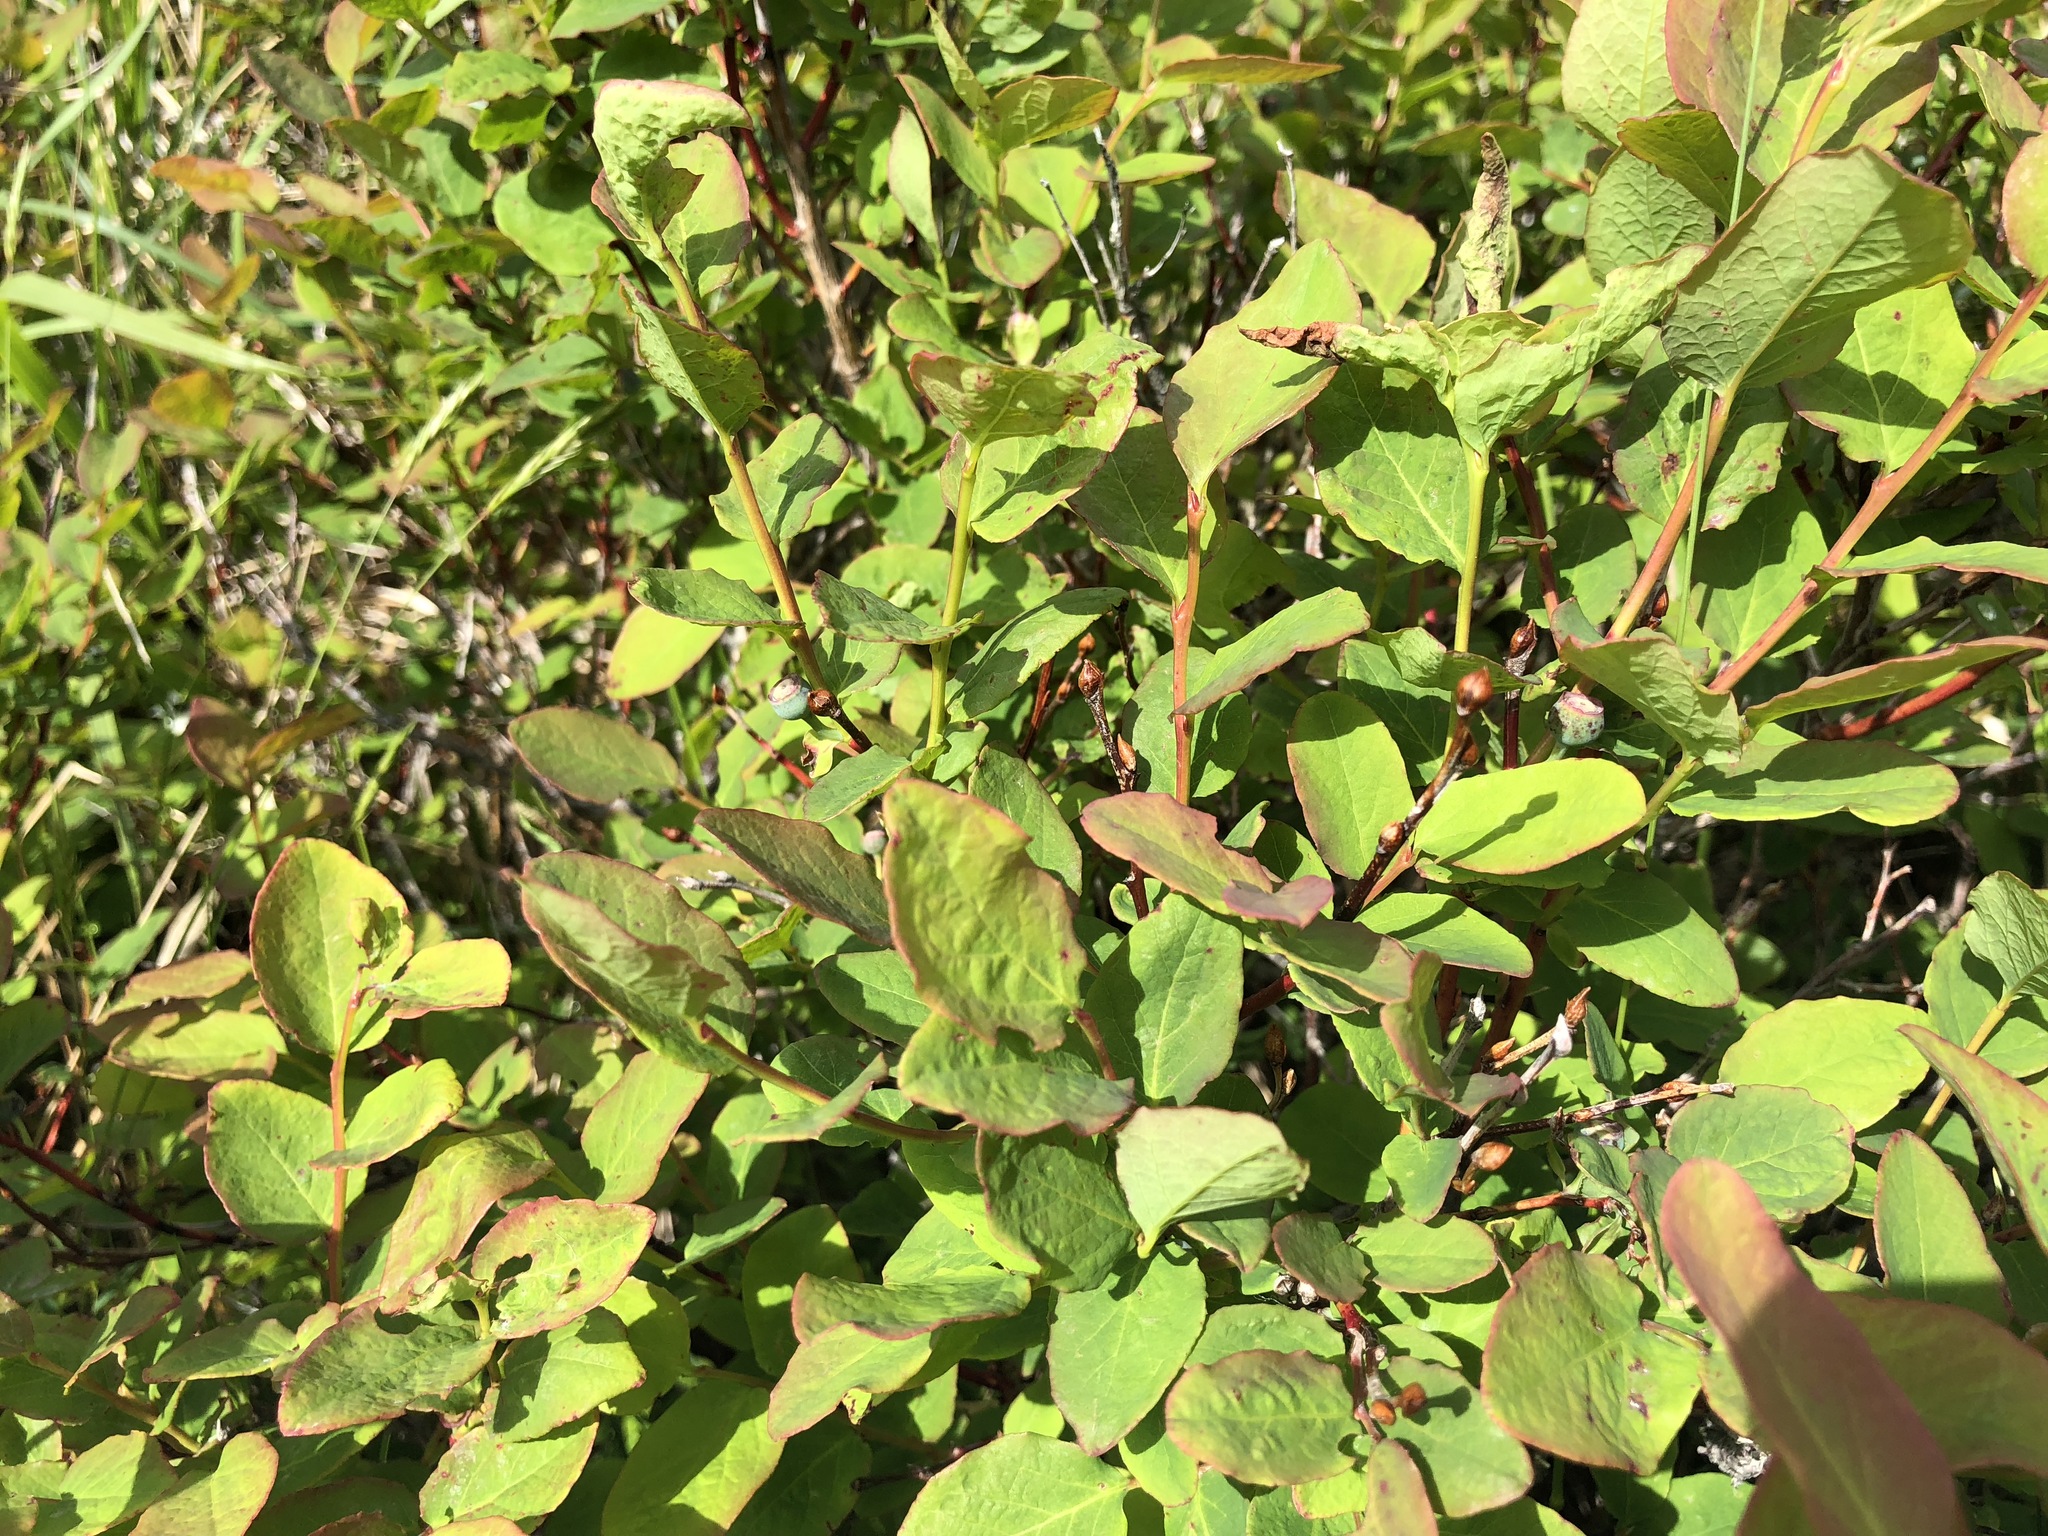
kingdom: Plantae
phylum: Tracheophyta
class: Magnoliopsida
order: Ericales
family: Ericaceae
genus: Vaccinium
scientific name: Vaccinium ovalifolium
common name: Early blueberry
